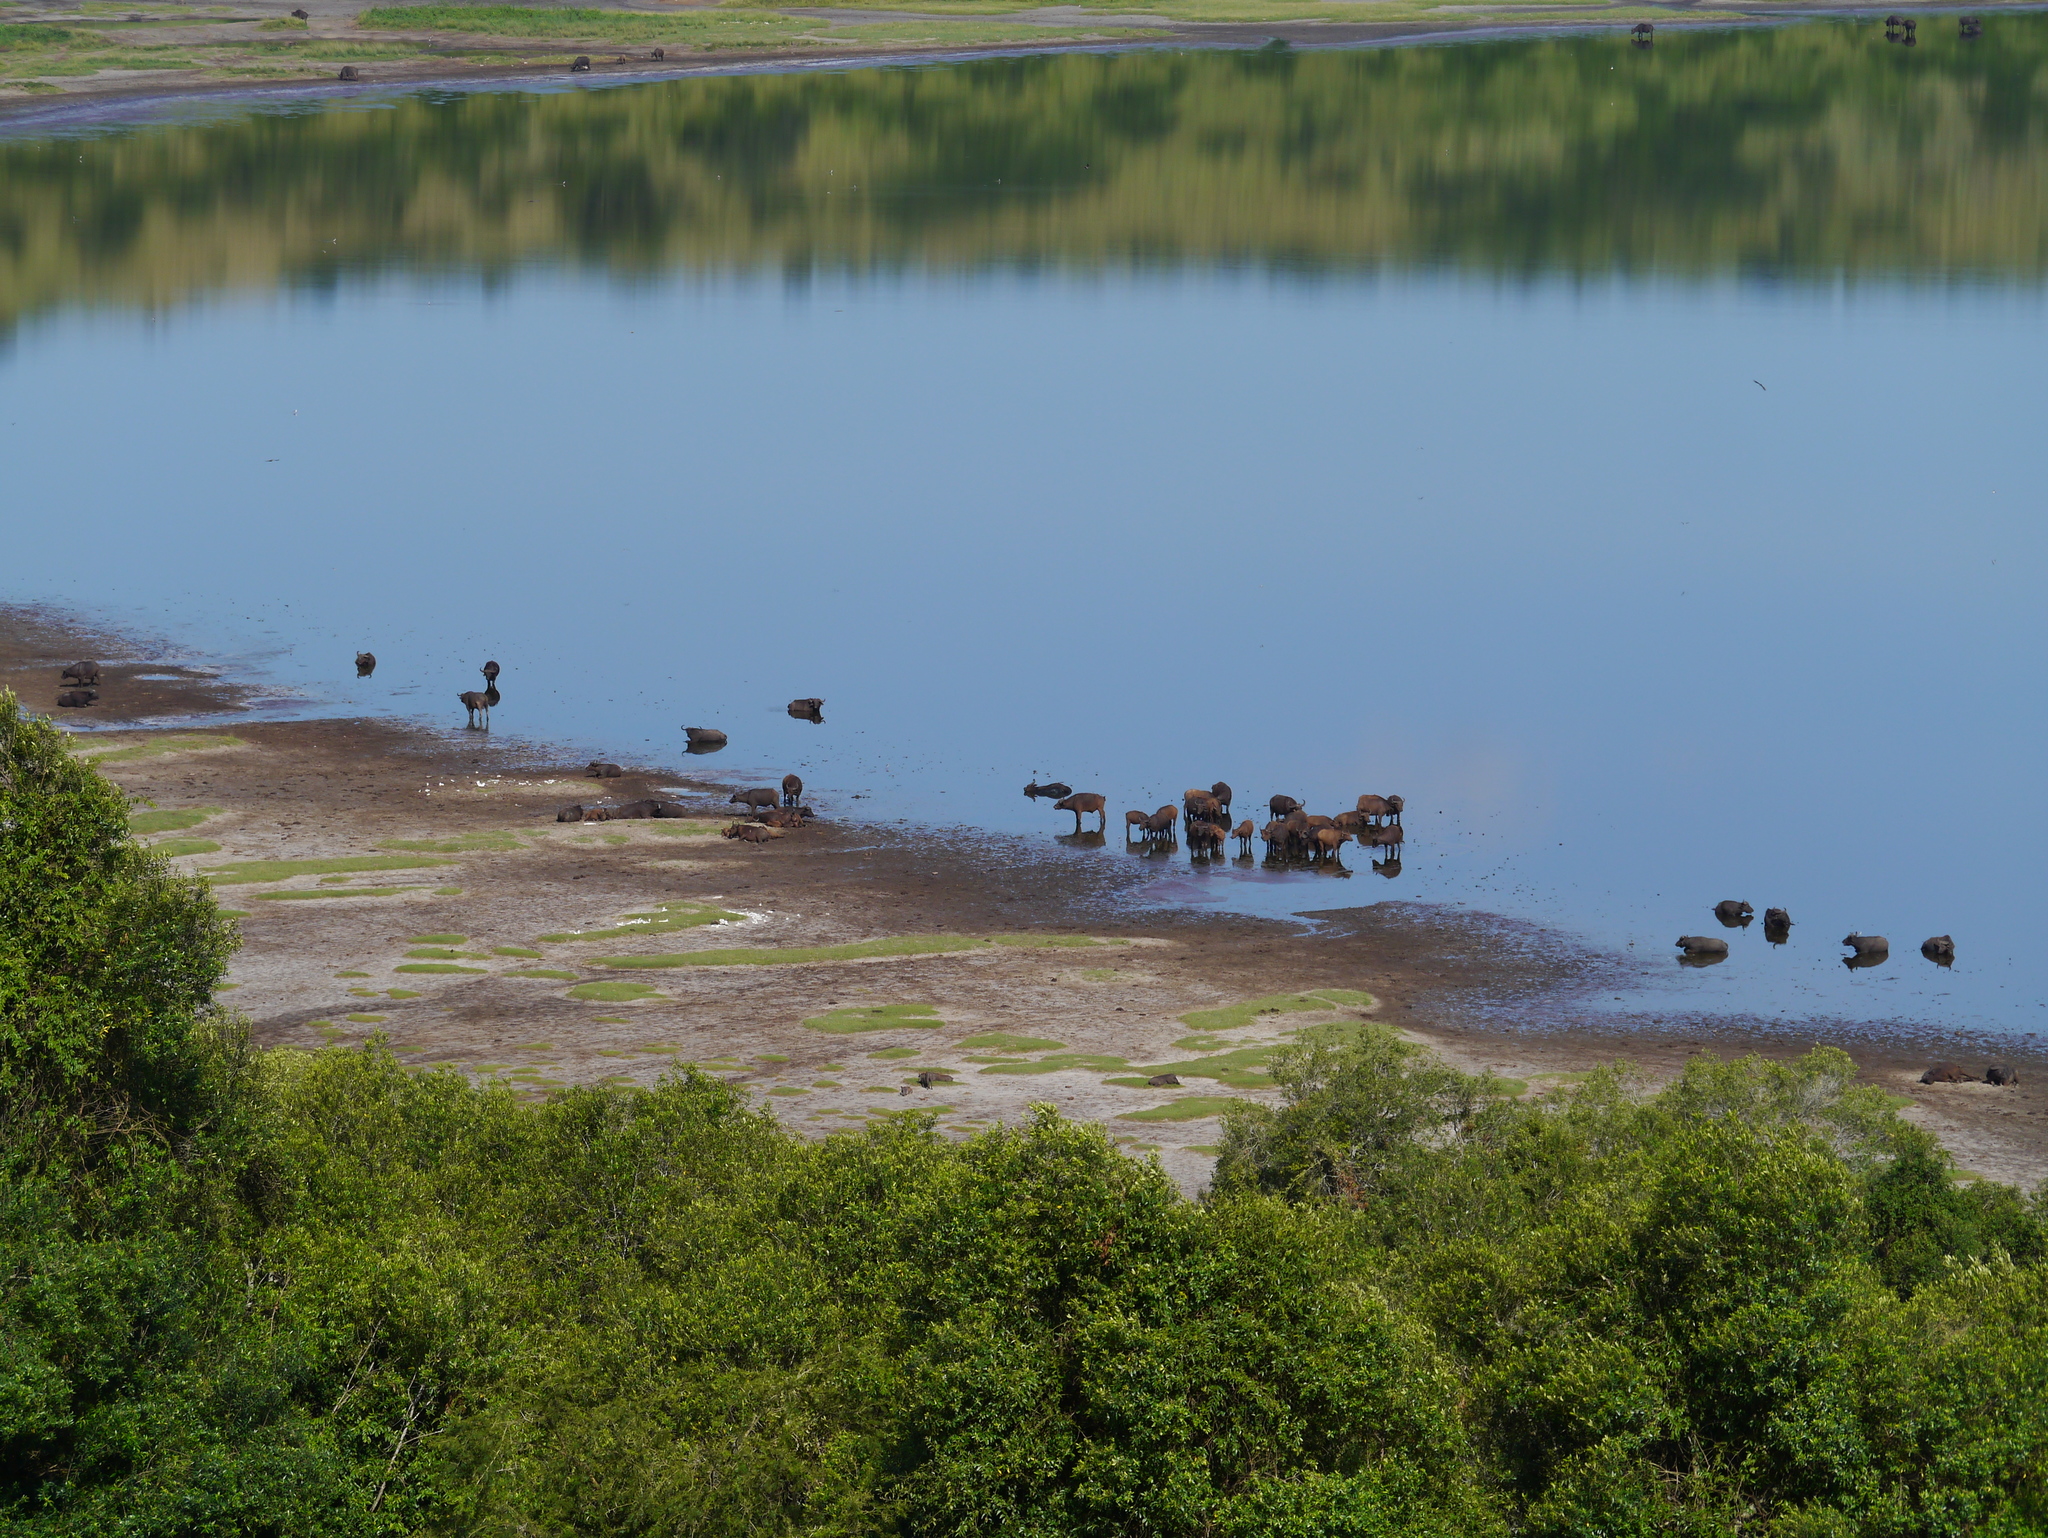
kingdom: Animalia
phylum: Chordata
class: Mammalia
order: Artiodactyla
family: Bovidae
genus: Syncerus
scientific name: Syncerus caffer
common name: African buffalo
